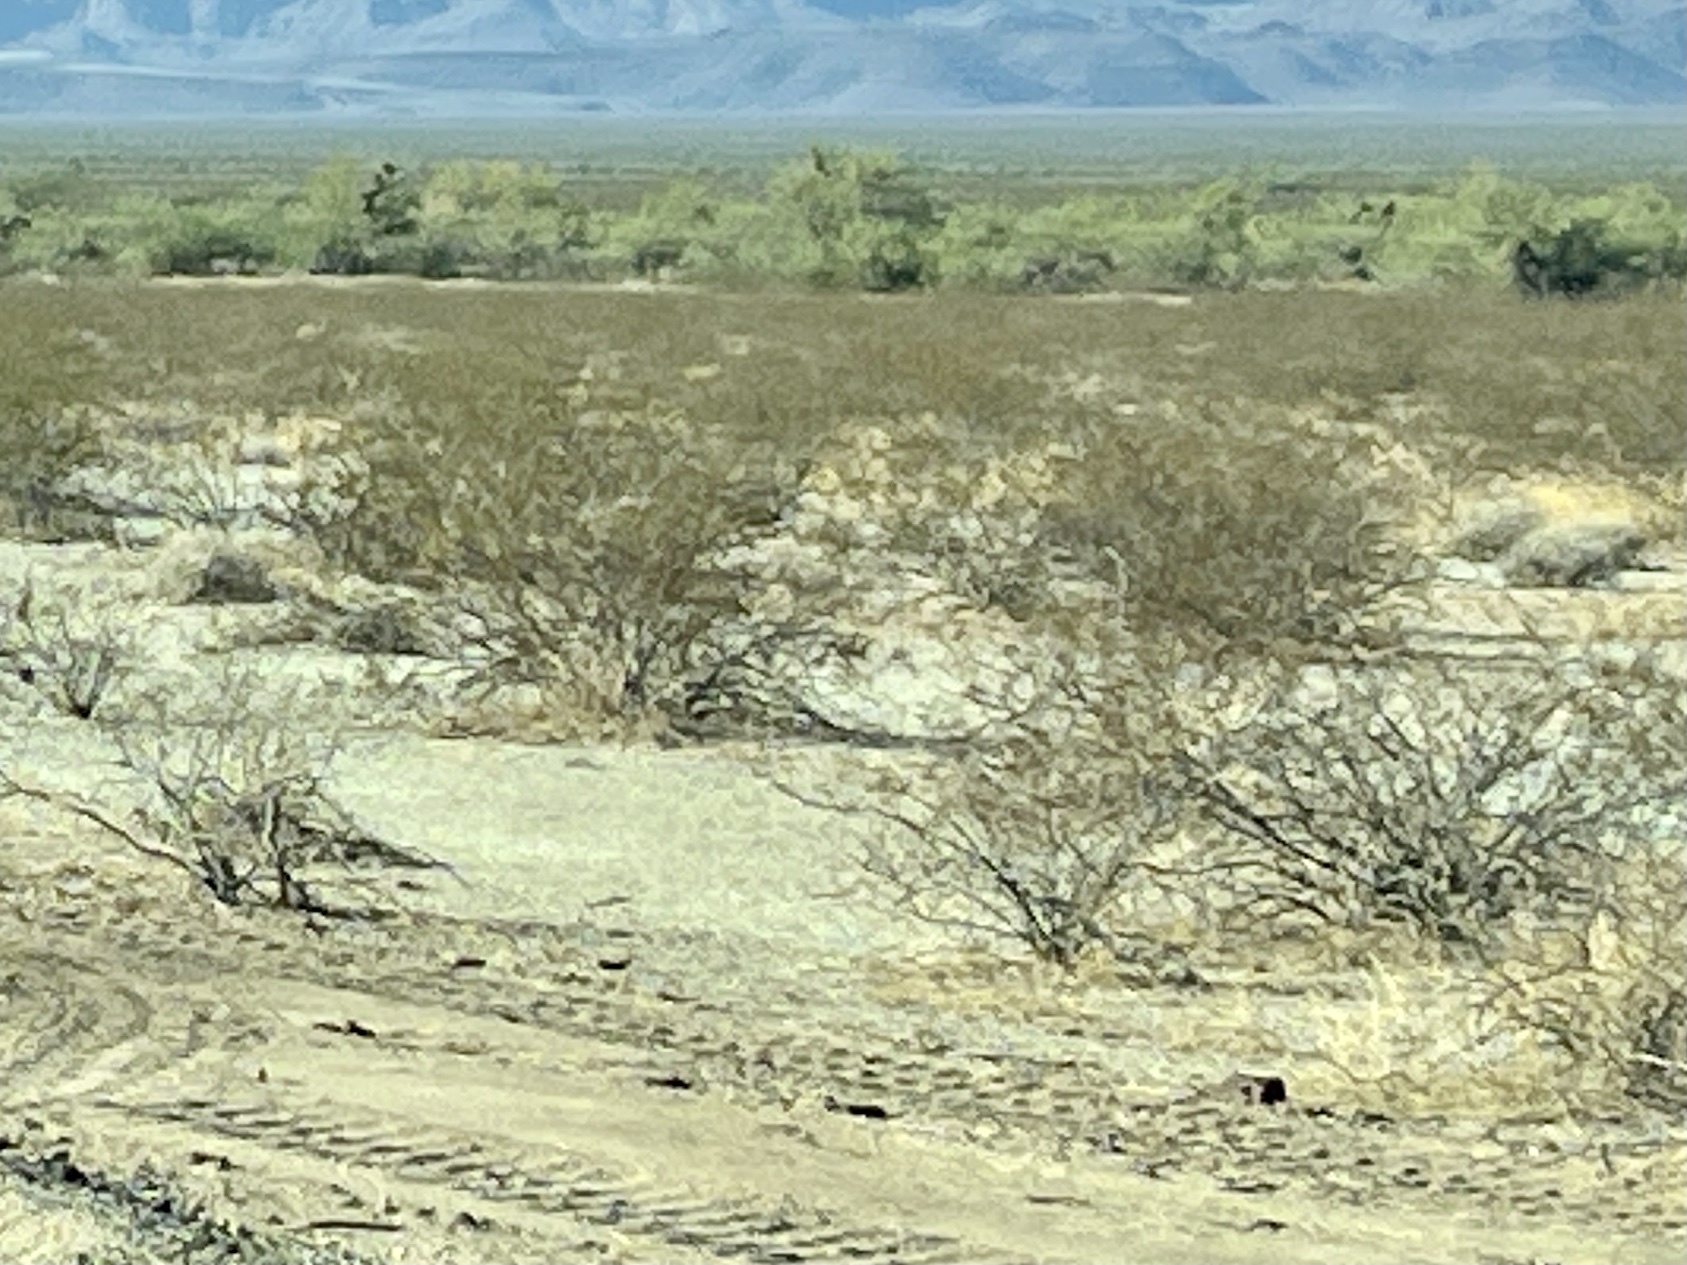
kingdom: Plantae
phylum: Tracheophyta
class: Magnoliopsida
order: Zygophyllales
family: Zygophyllaceae
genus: Larrea
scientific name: Larrea tridentata
